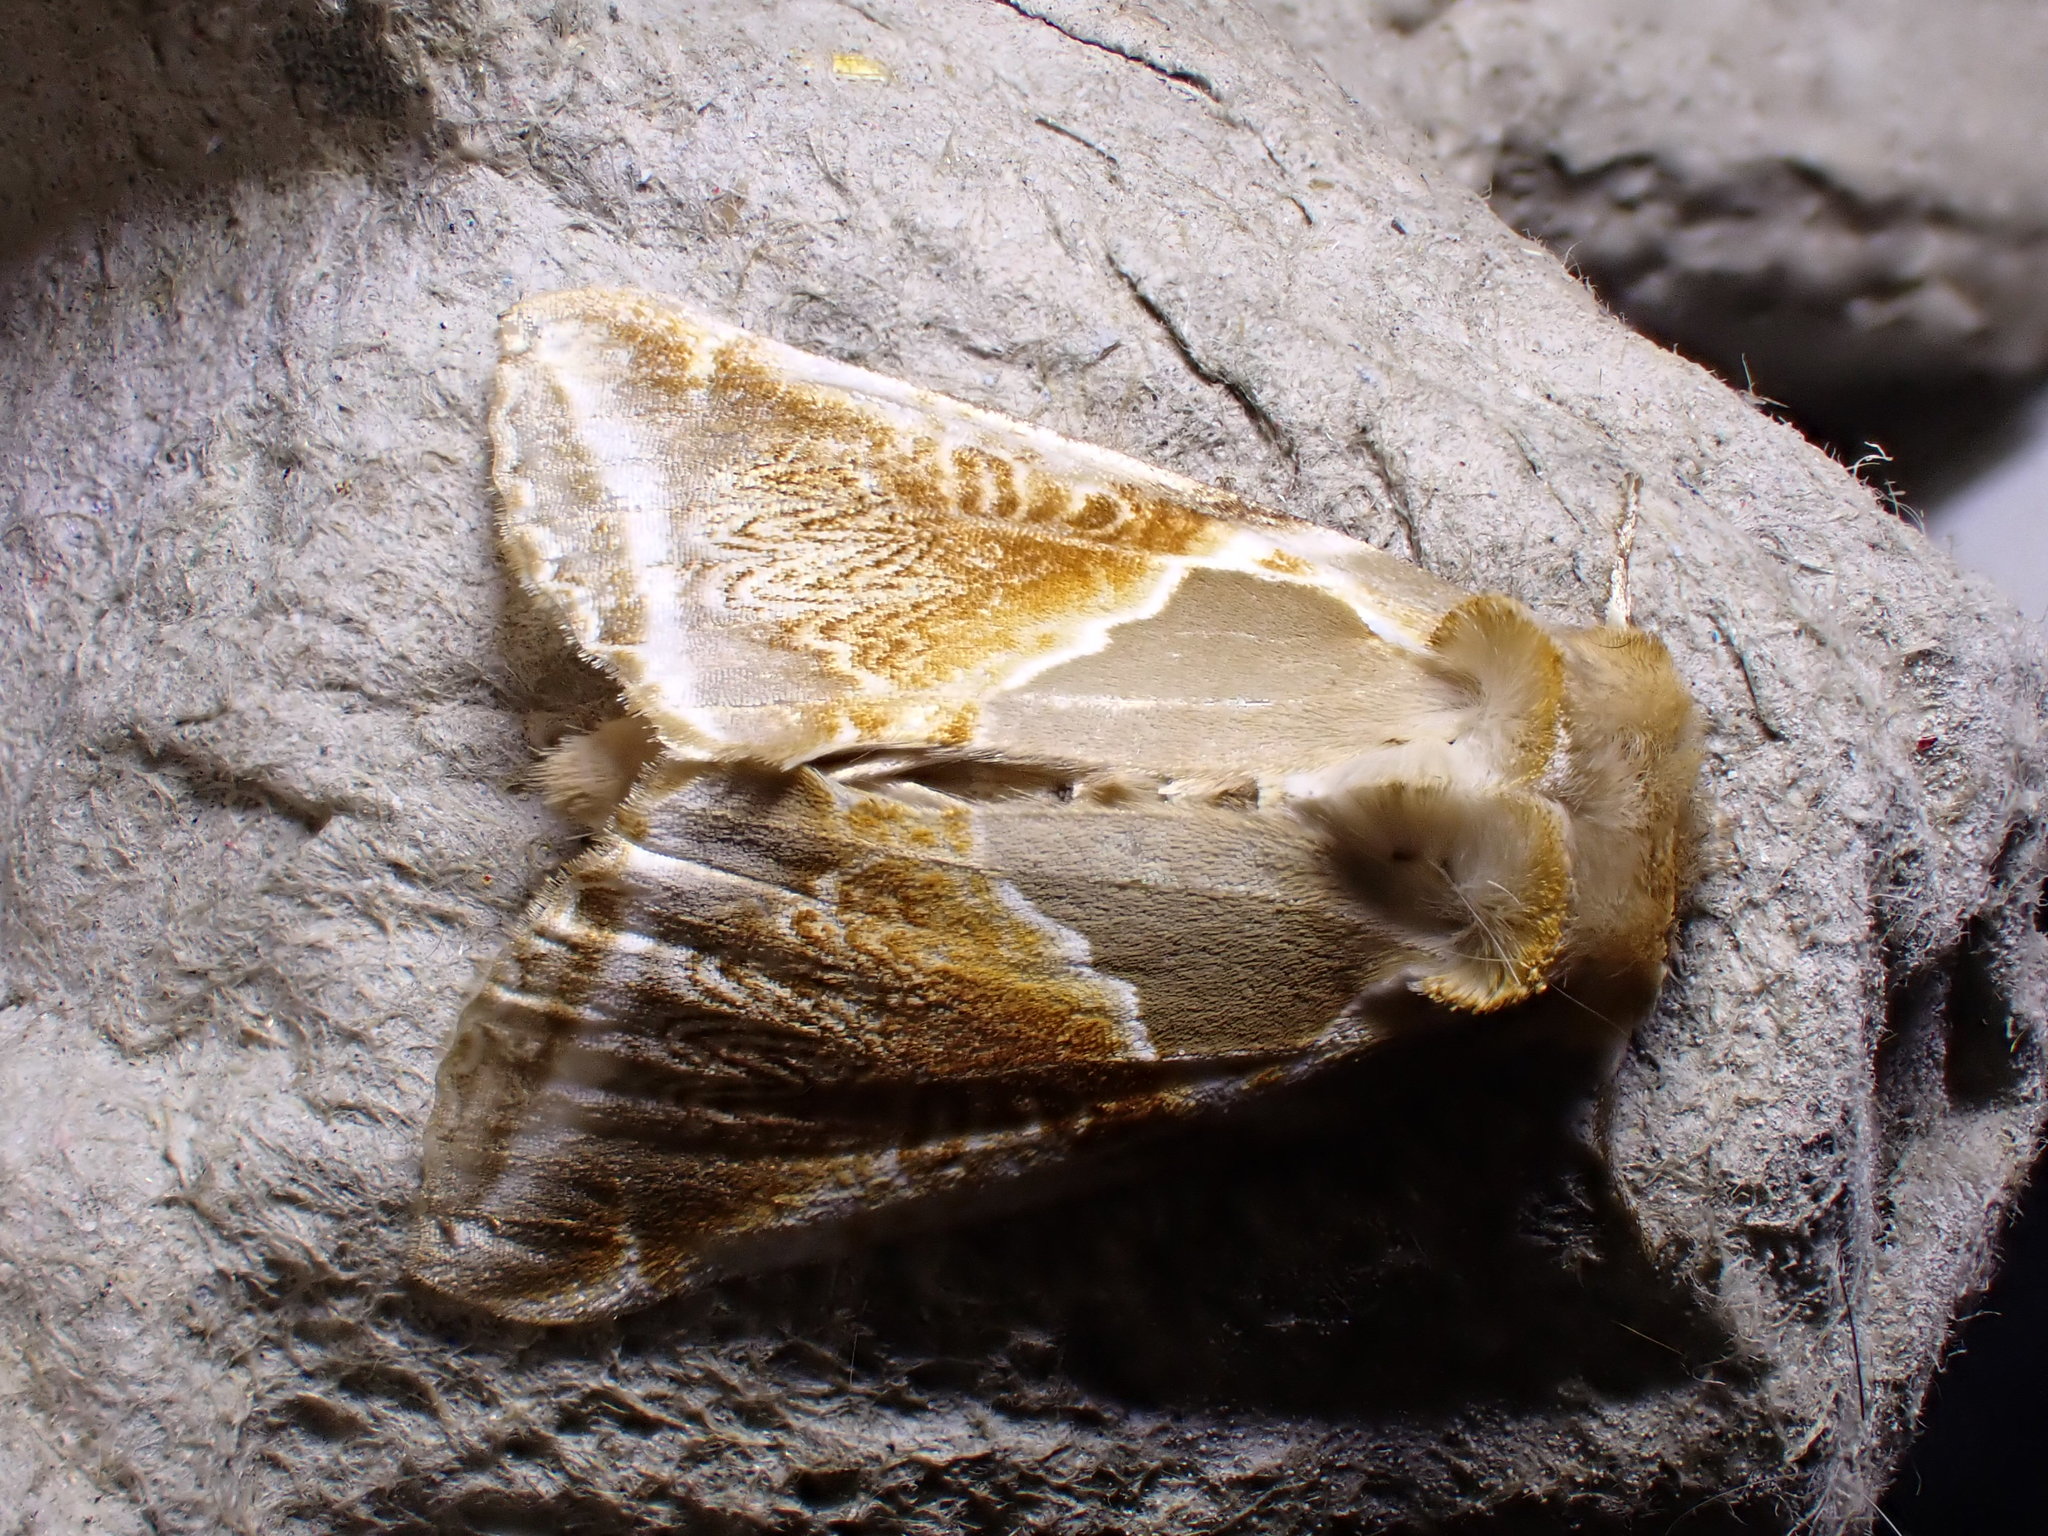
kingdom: Animalia
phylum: Arthropoda
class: Insecta
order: Lepidoptera
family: Drepanidae
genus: Habrosyne
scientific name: Habrosyne pyritoides
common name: Buff arches
